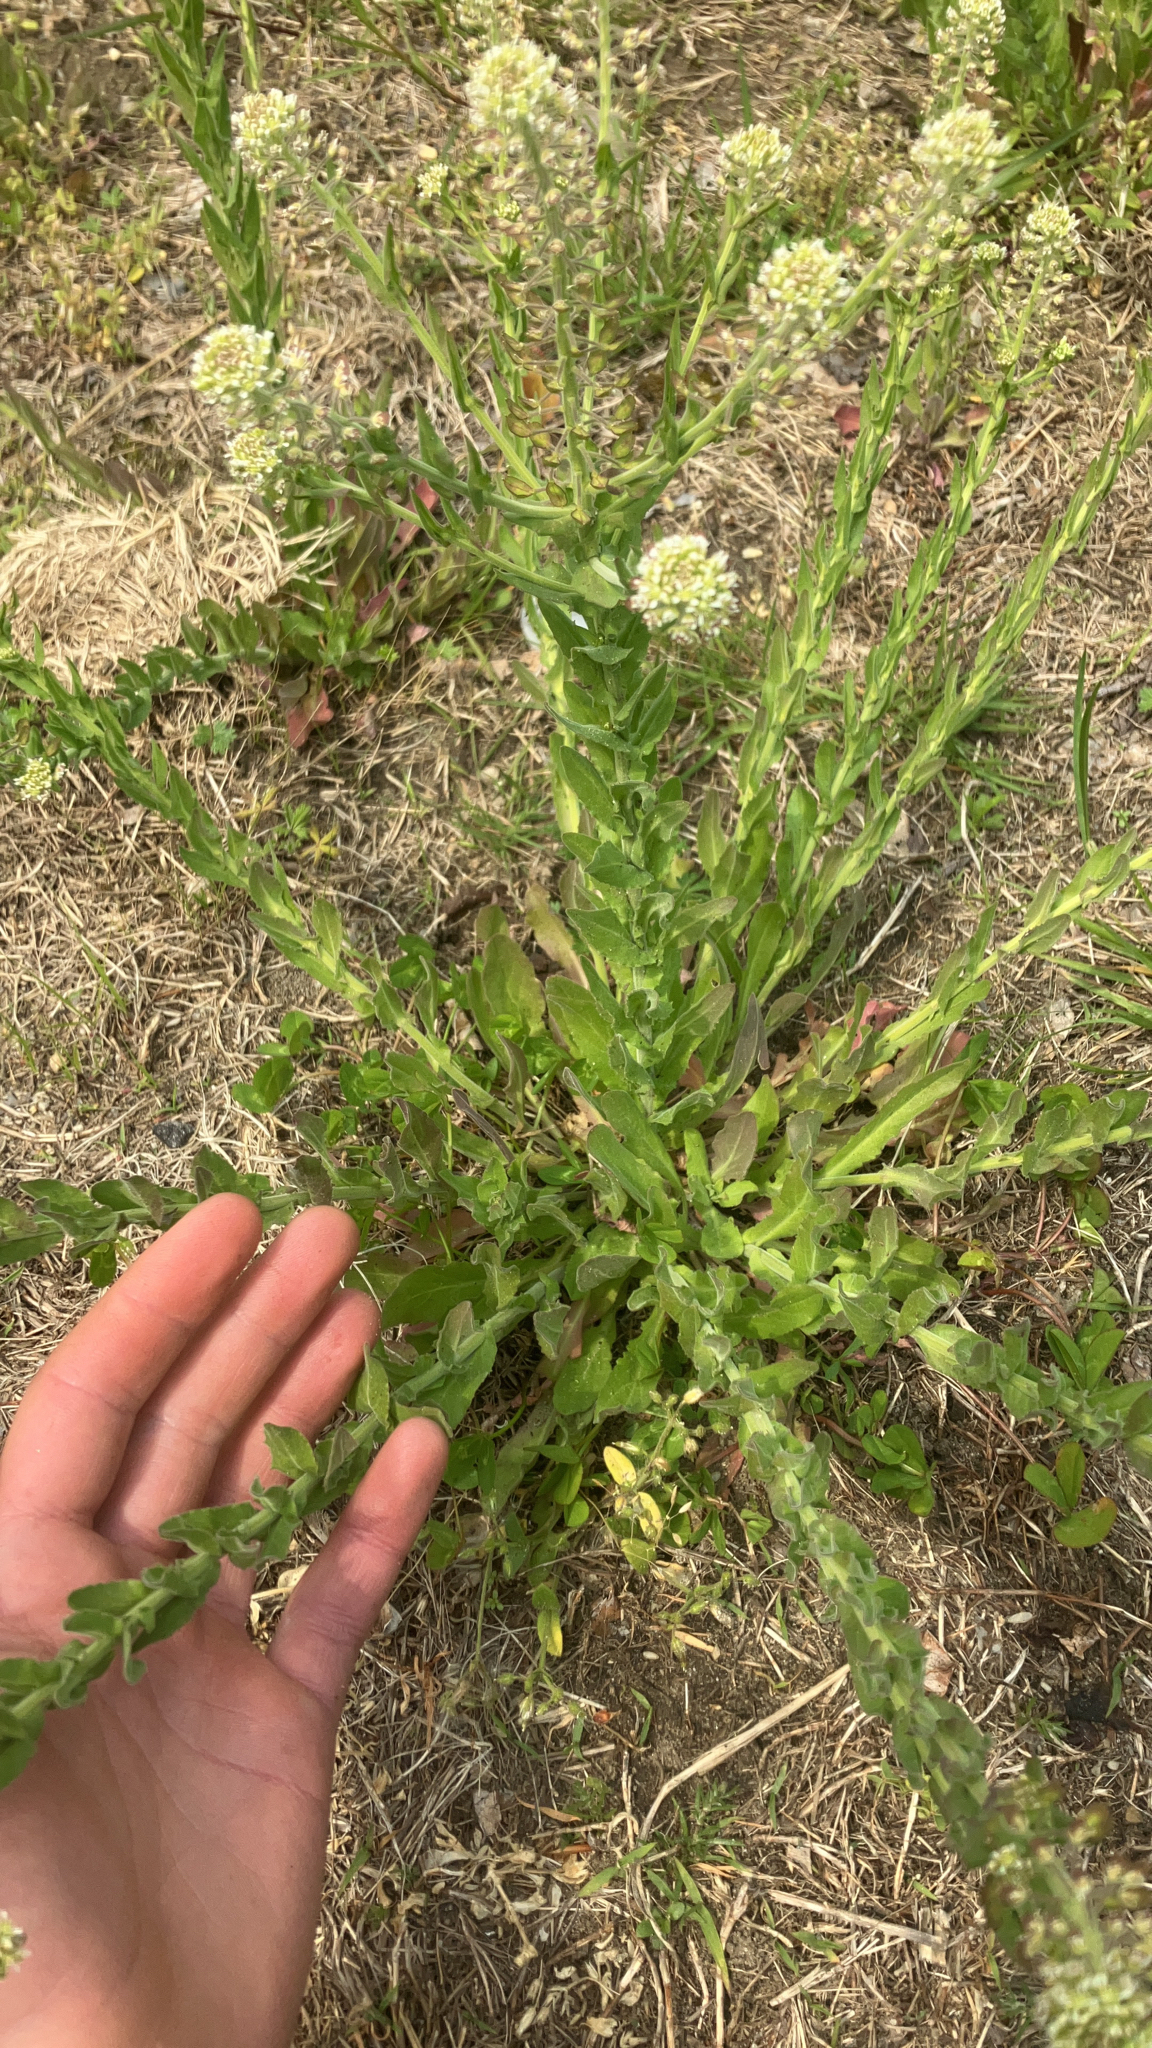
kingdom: Plantae
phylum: Tracheophyta
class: Magnoliopsida
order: Brassicales
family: Brassicaceae
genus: Lepidium
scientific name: Lepidium campestre
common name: Field pepperwort
